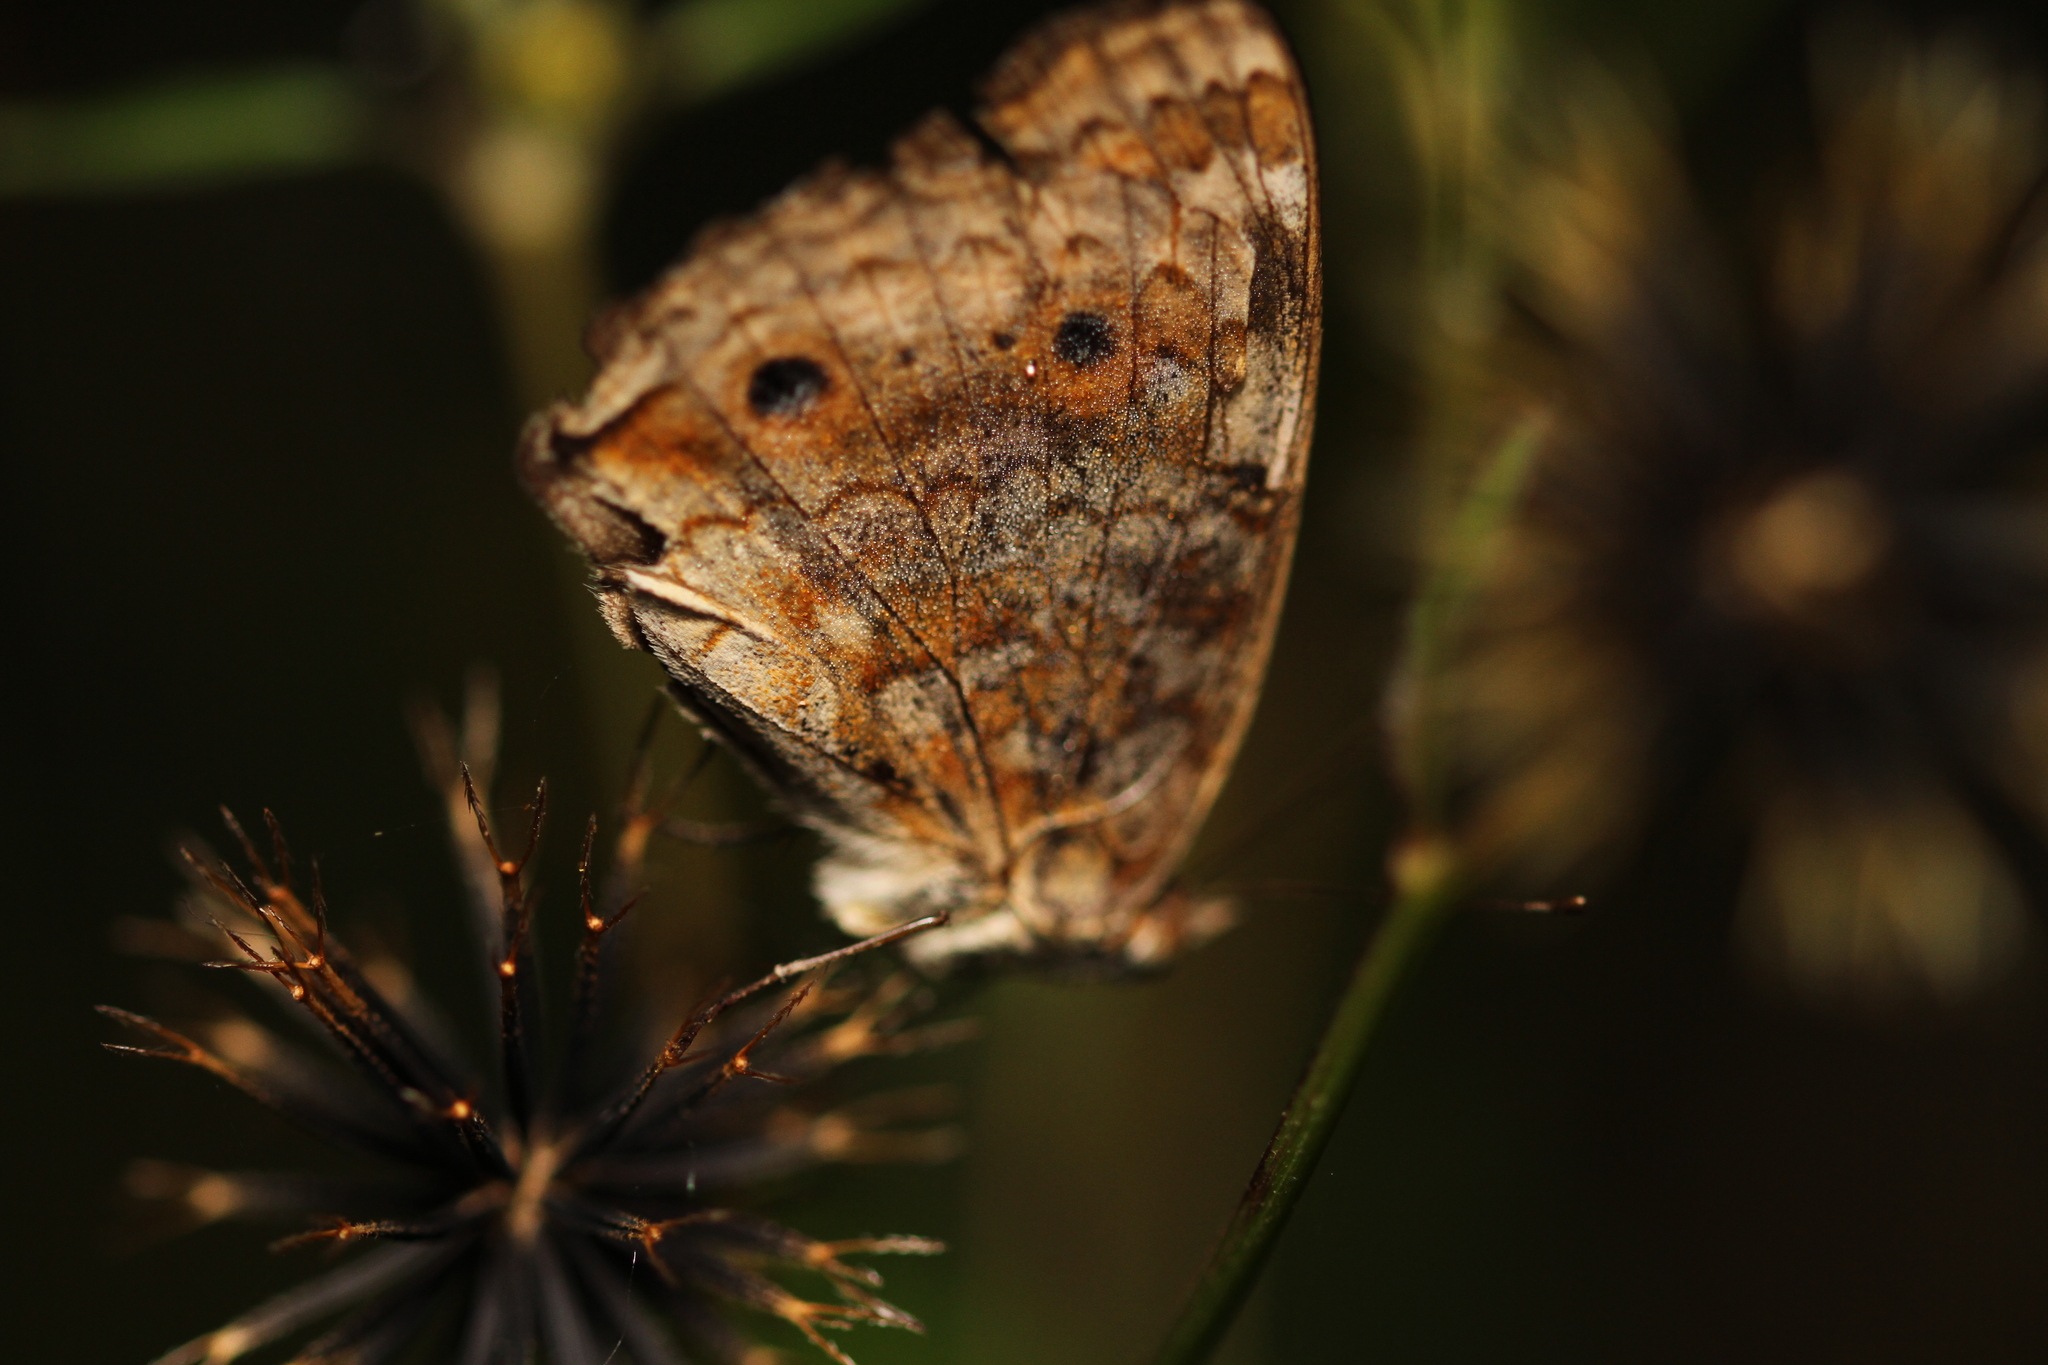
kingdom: Animalia
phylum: Arthropoda
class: Insecta
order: Lepidoptera
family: Nymphalidae
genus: Junonia
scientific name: Junonia orithya
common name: Blue pansy
